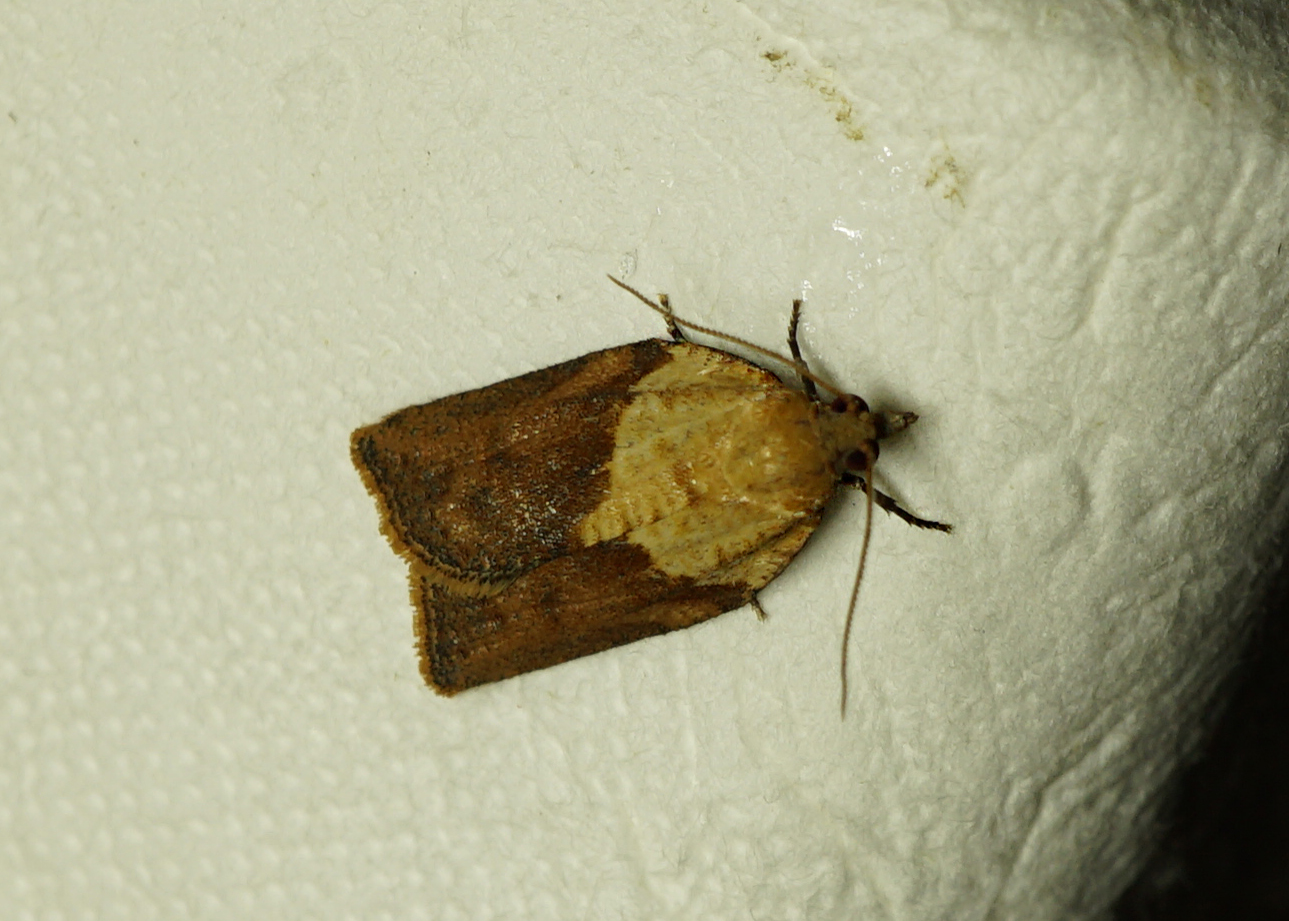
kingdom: Animalia
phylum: Arthropoda
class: Insecta
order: Lepidoptera
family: Tortricidae
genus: Epiphyas
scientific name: Epiphyas postvittana
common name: Light brown apple moth
